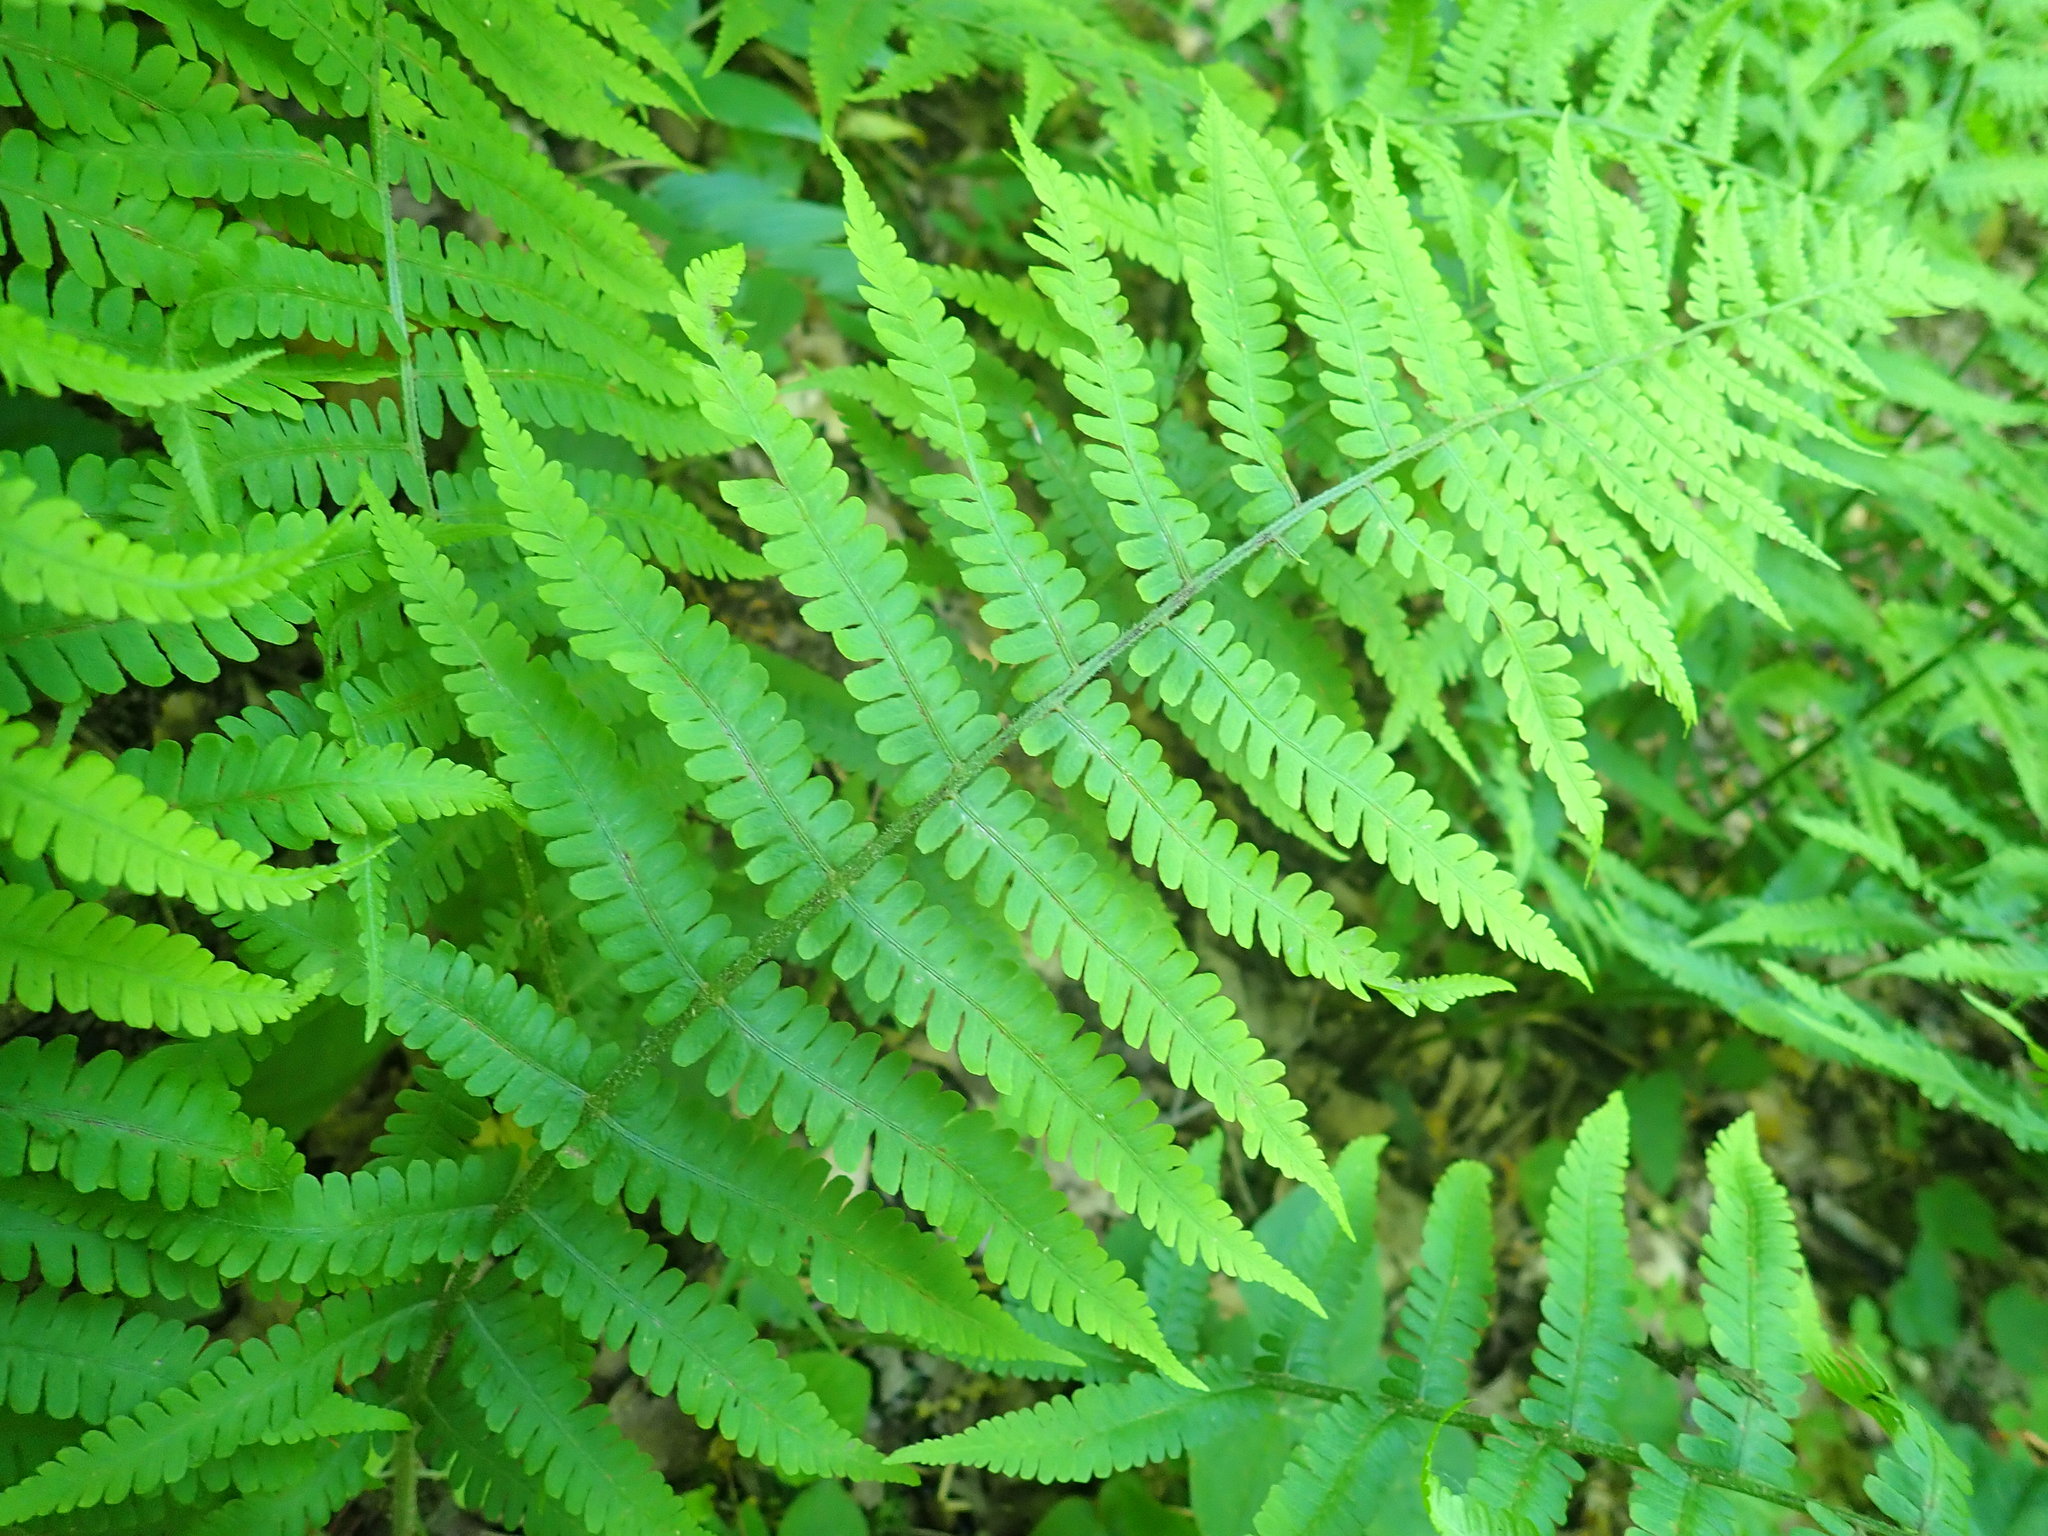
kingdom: Plantae
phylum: Tracheophyta
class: Polypodiopsida
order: Polypodiales
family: Athyriaceae
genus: Deparia
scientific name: Deparia acrostichoides
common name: Silver false spleenwort
